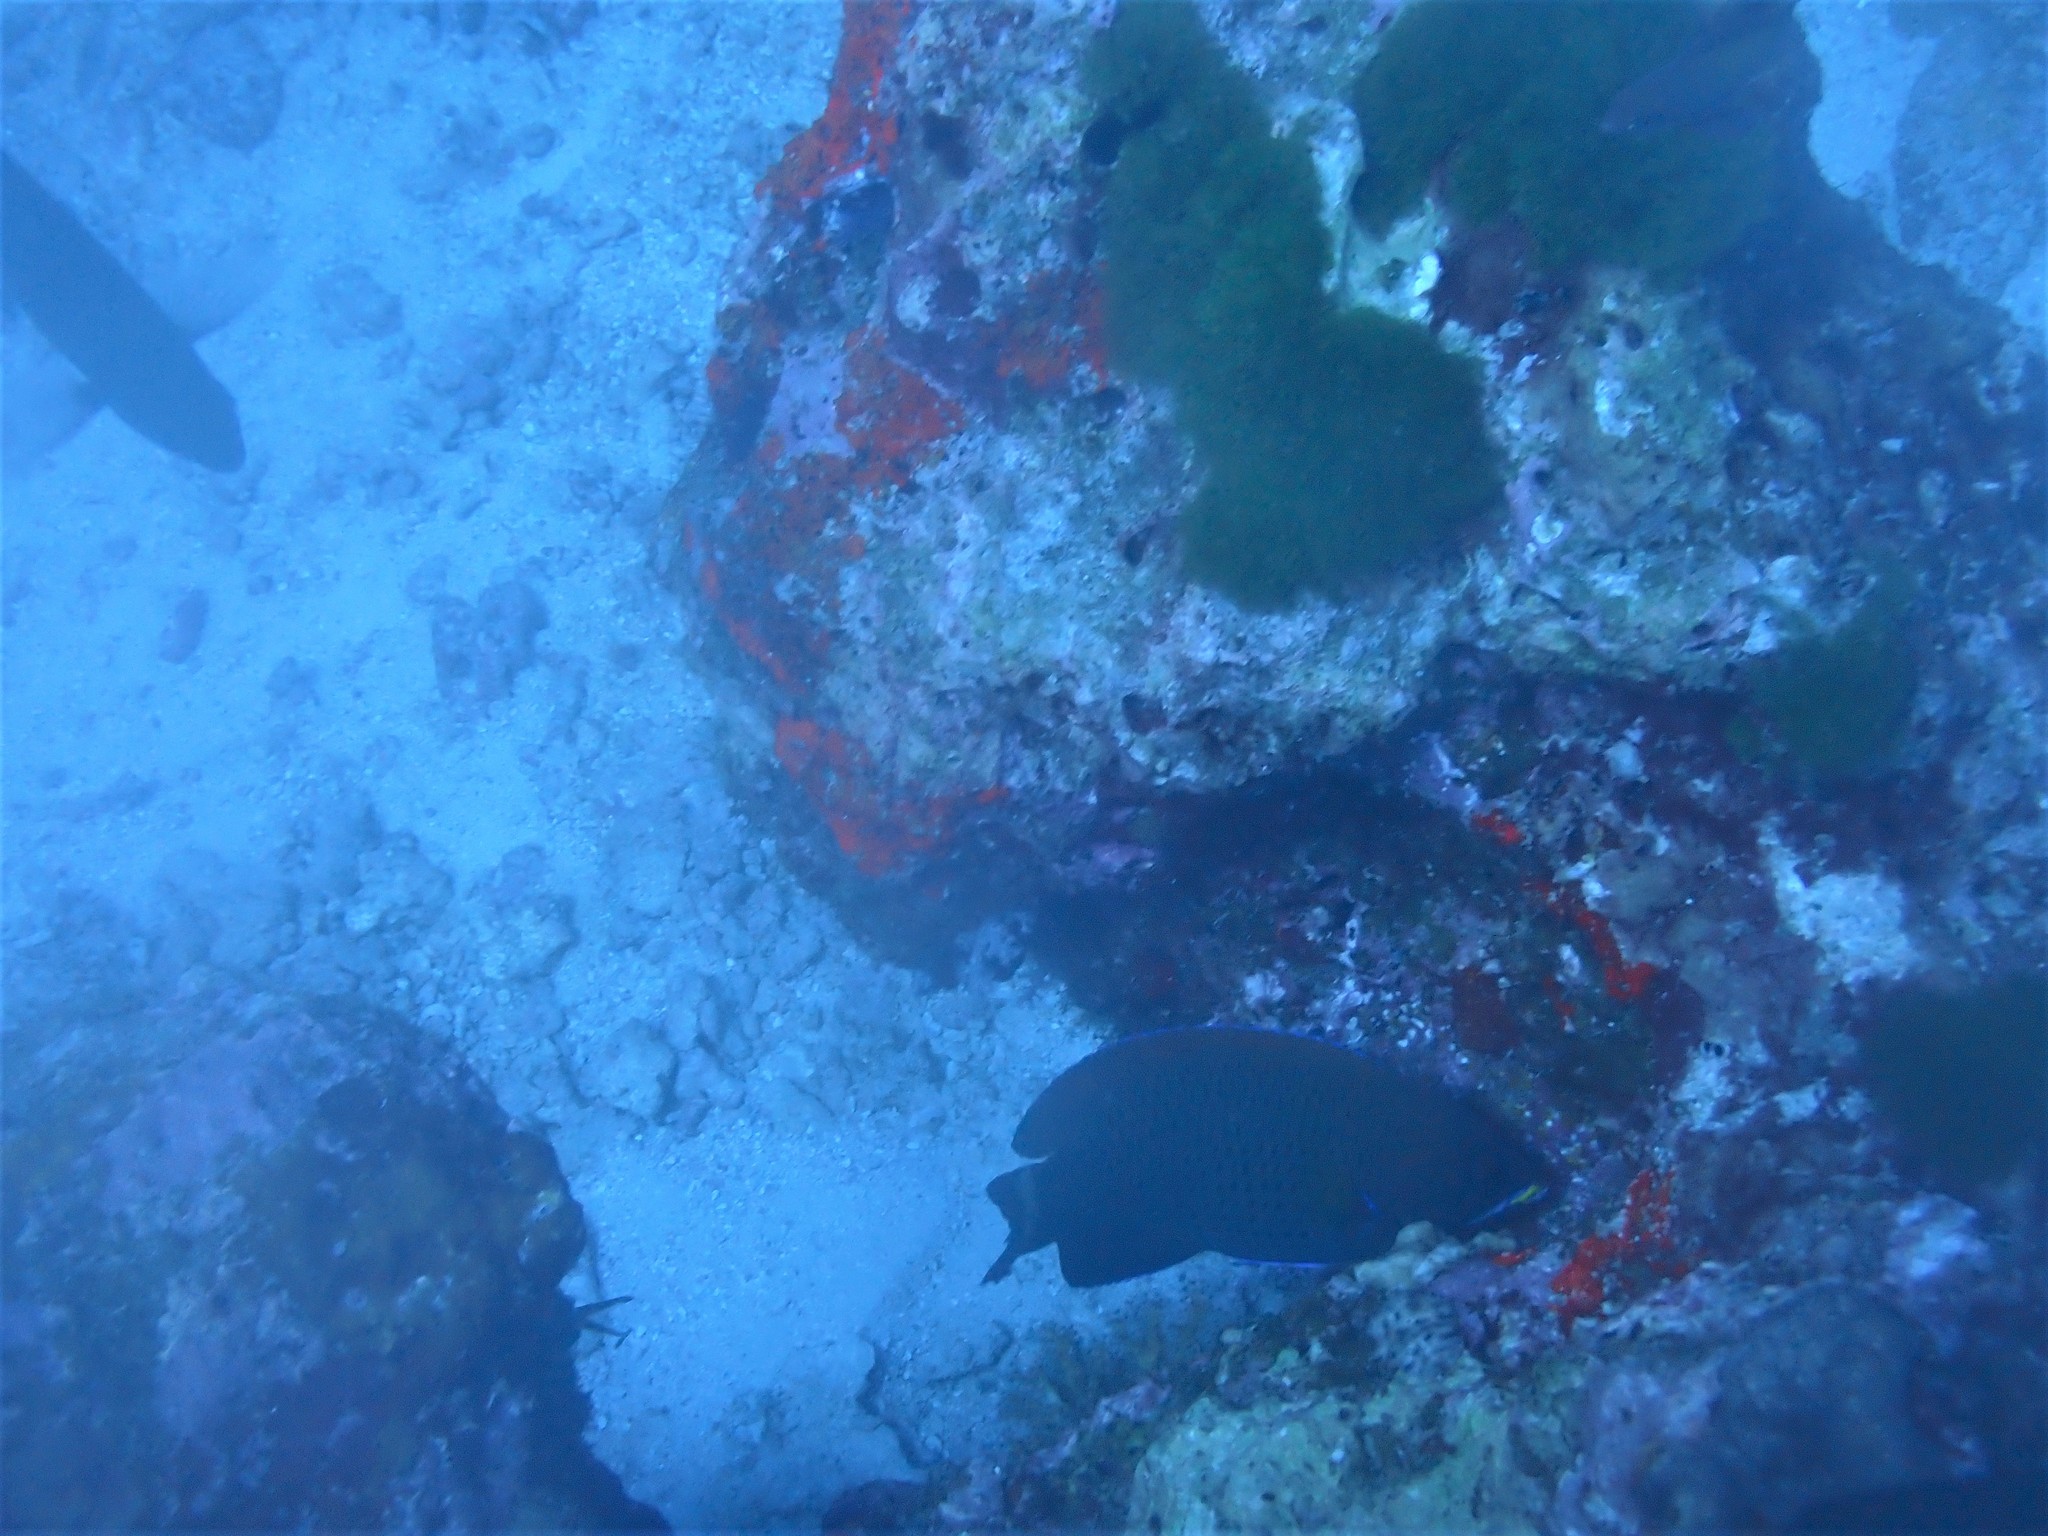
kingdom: Animalia
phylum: Chordata
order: Perciformes
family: Labridae
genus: Pseudodax
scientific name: Pseudodax moluccanus
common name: Chiseltooth wrasse
